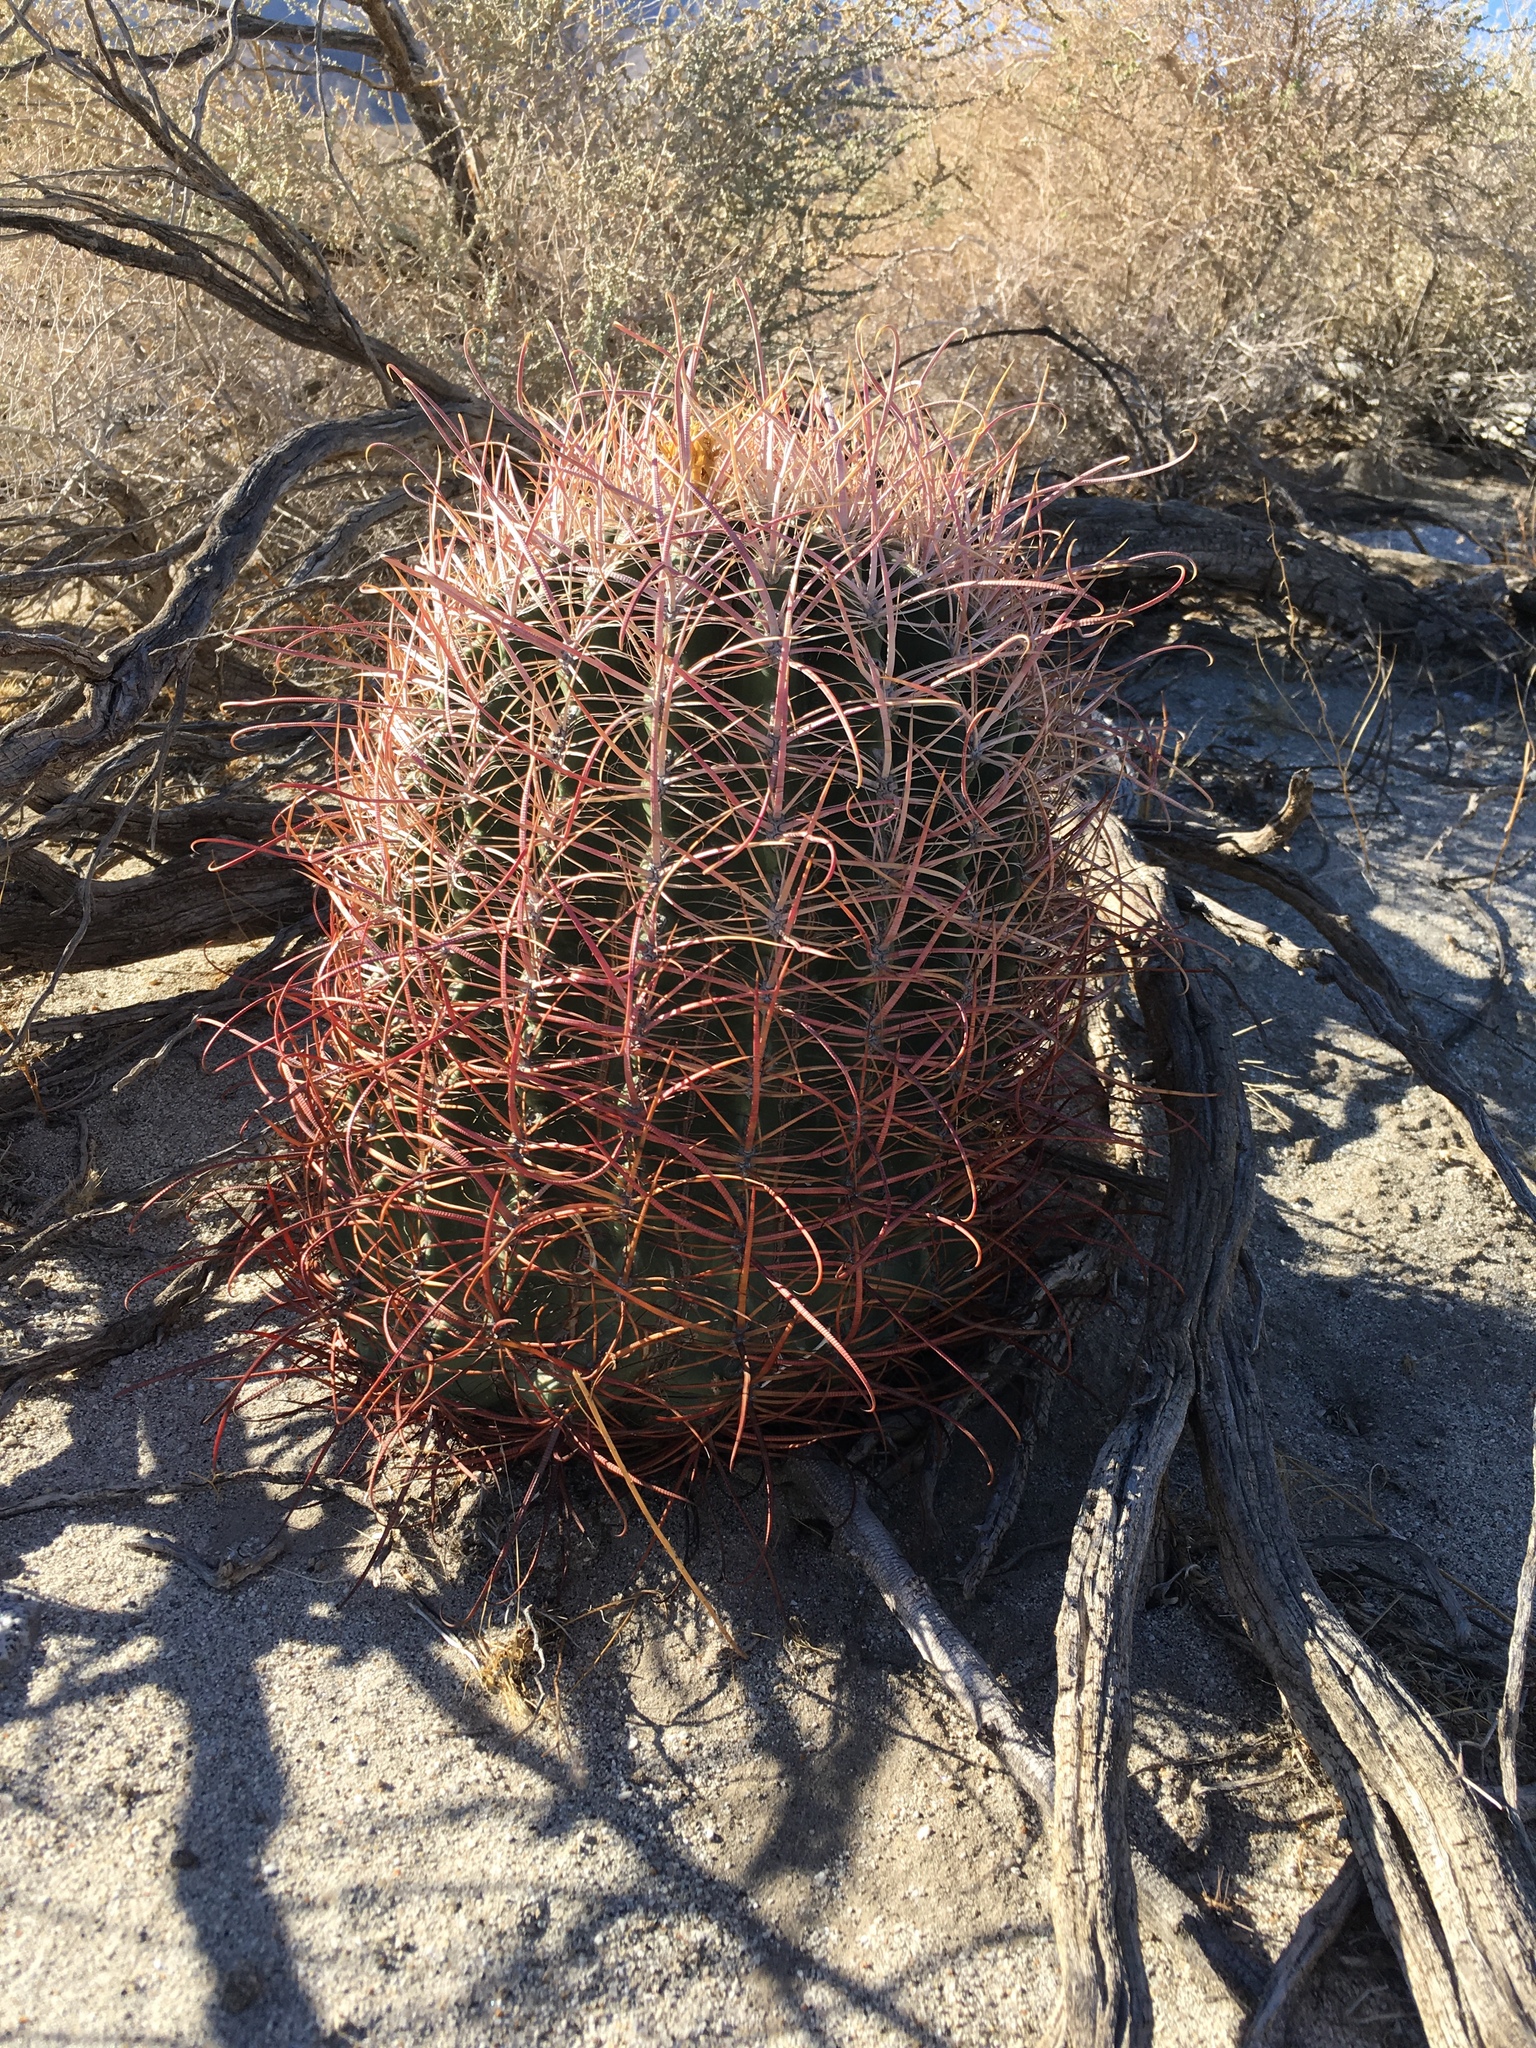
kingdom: Plantae
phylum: Tracheophyta
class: Magnoliopsida
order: Caryophyllales
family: Cactaceae
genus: Ferocactus
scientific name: Ferocactus cylindraceus
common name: California barrel cactus
